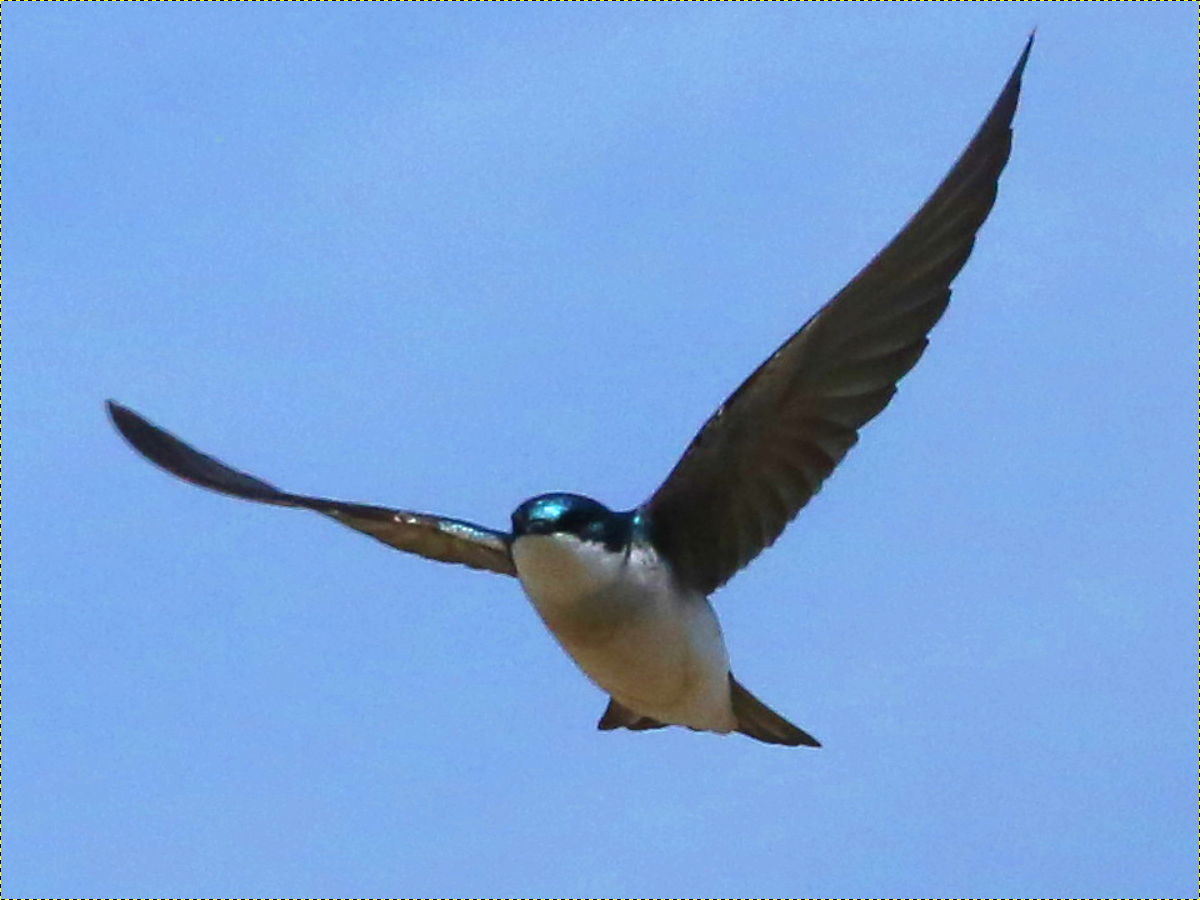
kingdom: Animalia
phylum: Chordata
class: Aves
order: Passeriformes
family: Hirundinidae
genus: Tachycineta
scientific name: Tachycineta bicolor
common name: Tree swallow
